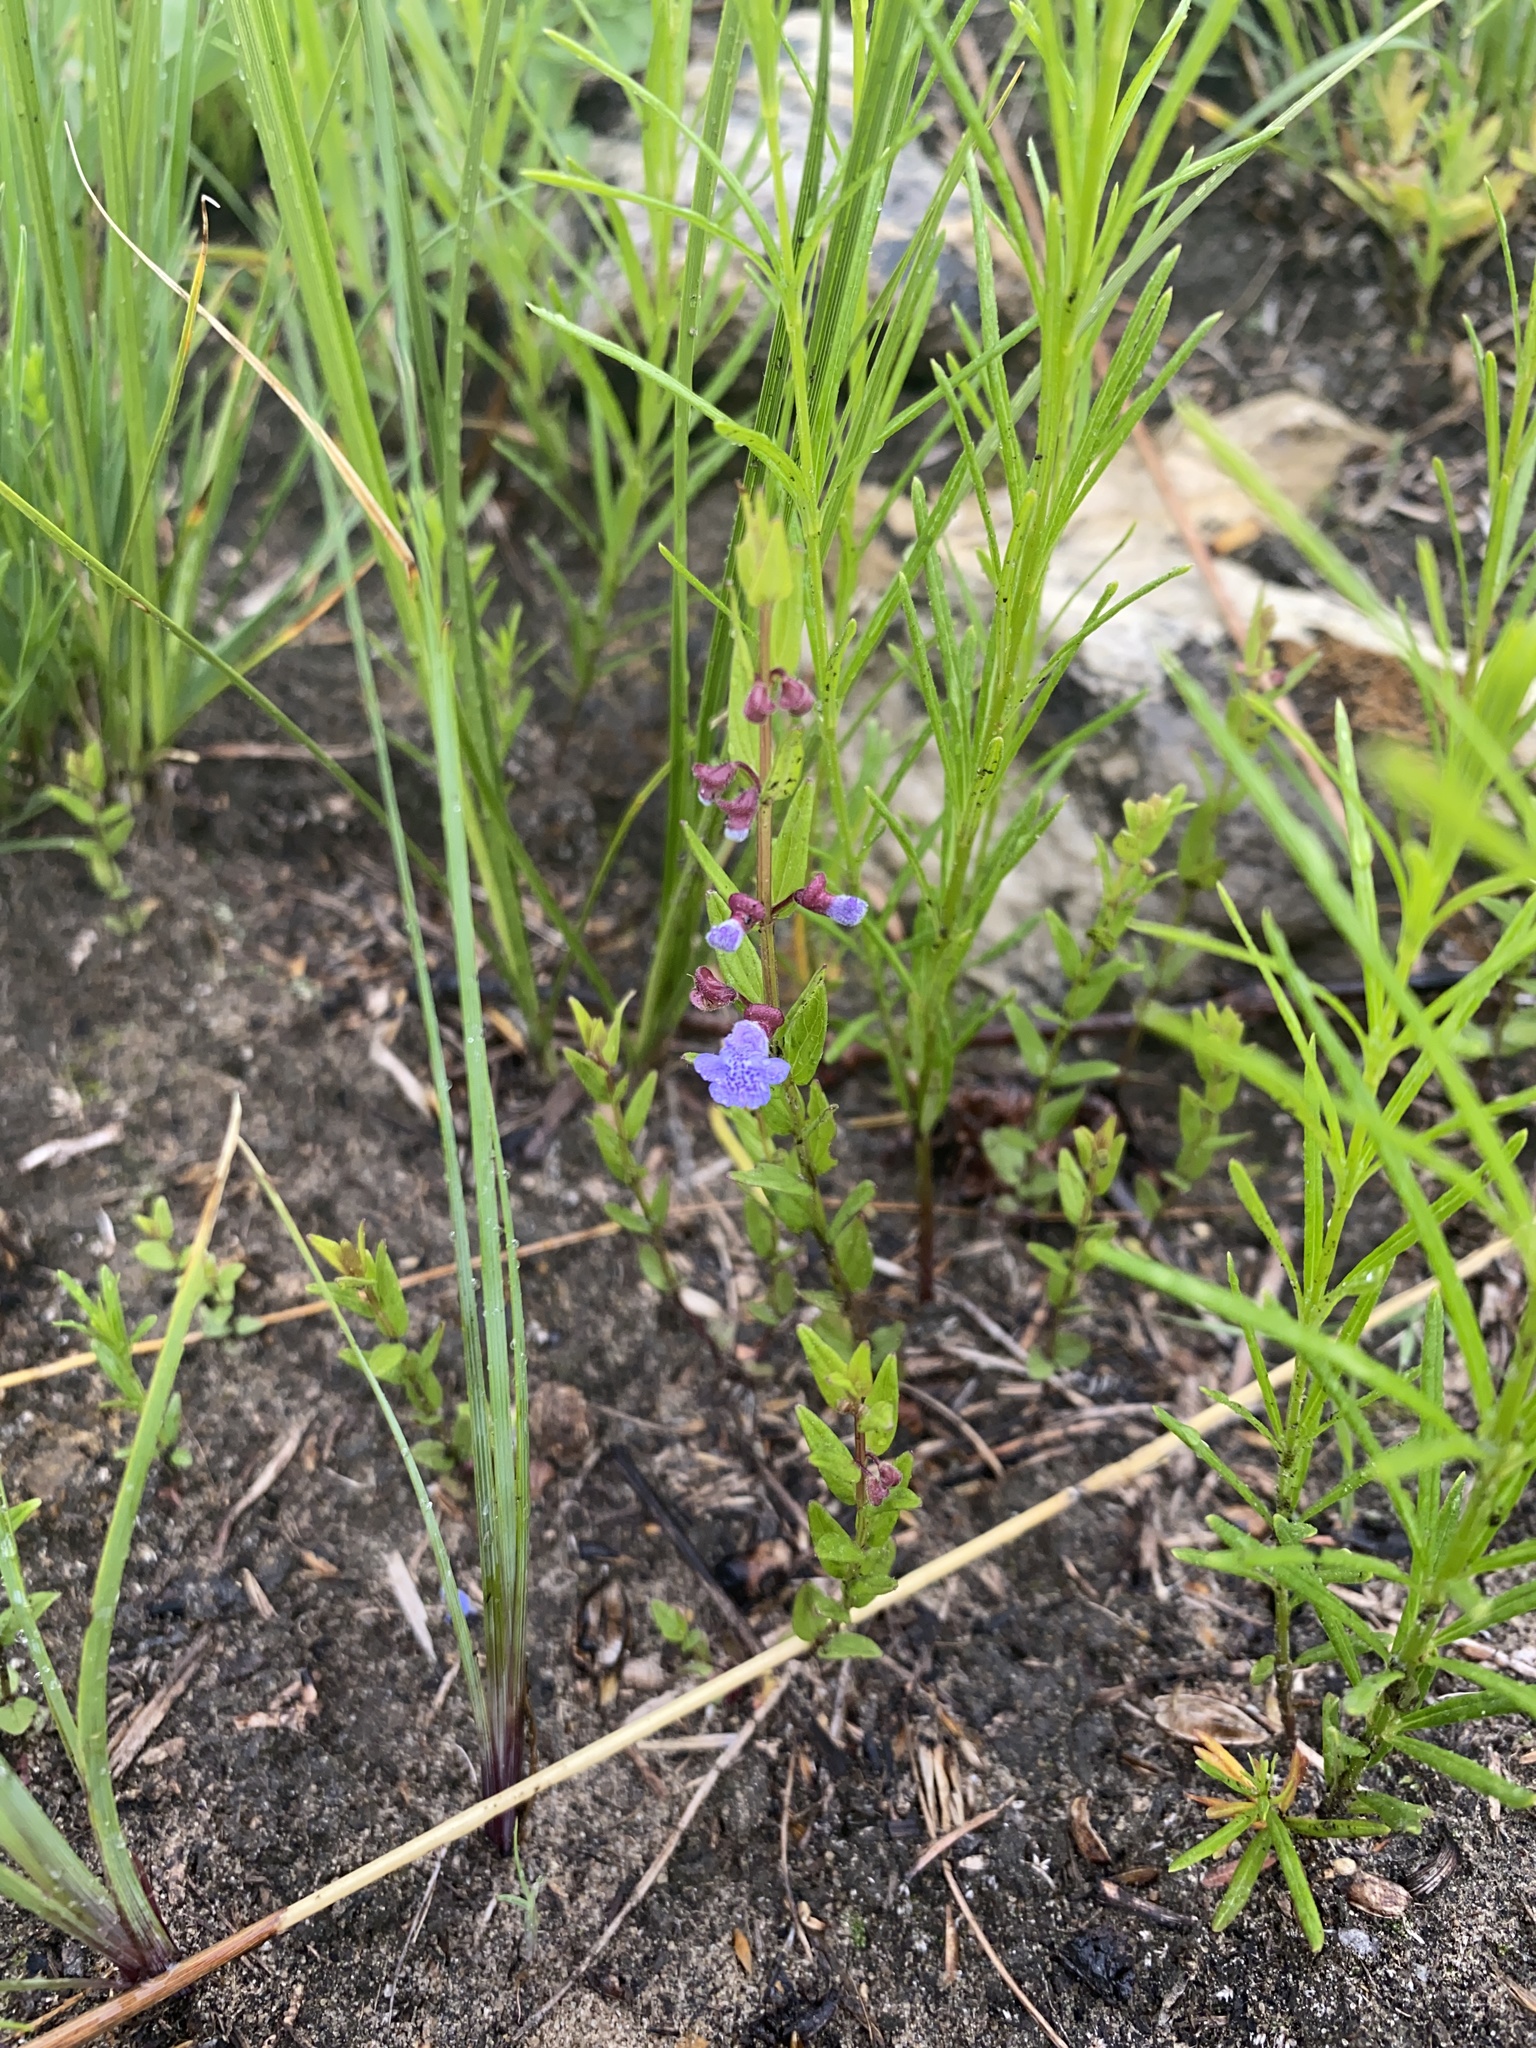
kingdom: Plantae
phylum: Tracheophyta
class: Magnoliopsida
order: Lamiales
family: Lamiaceae
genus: Scutellaria
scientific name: Scutellaria parvula
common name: Little scullcap
